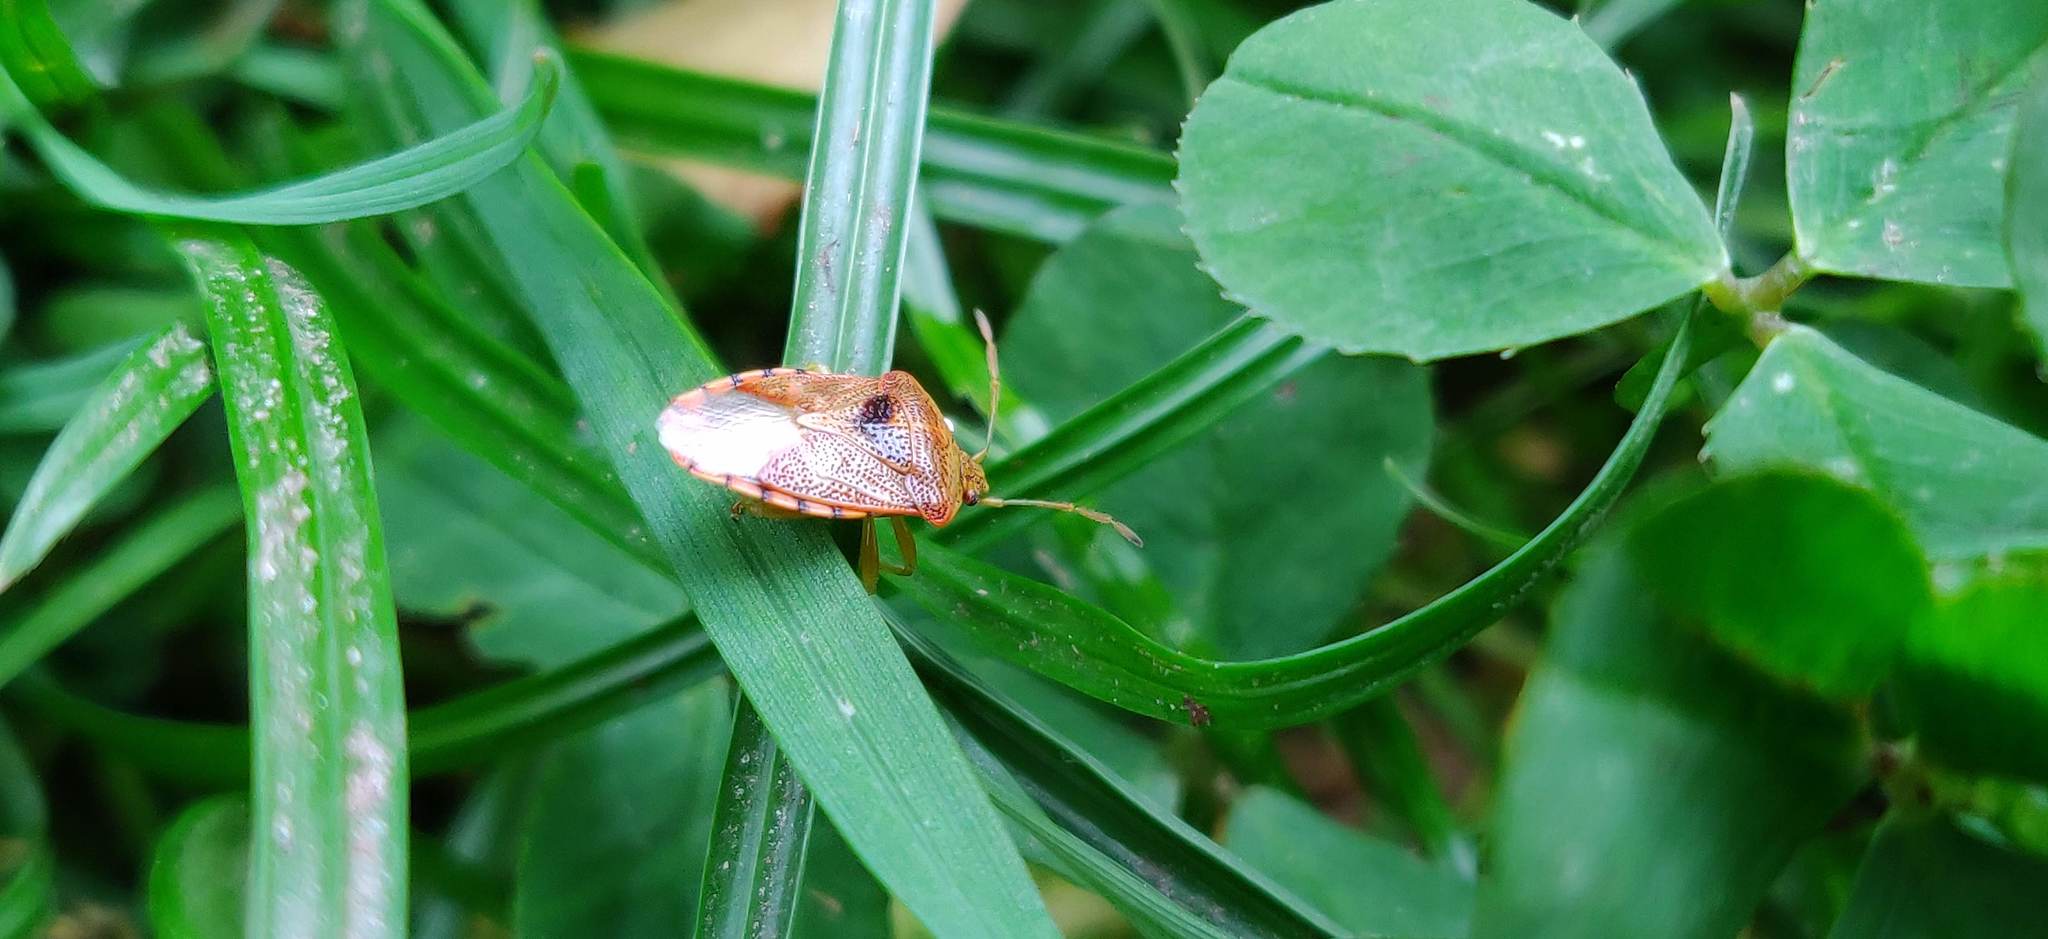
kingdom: Animalia
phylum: Arthropoda
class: Insecta
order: Hemiptera
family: Acanthosomatidae
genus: Elasmucha
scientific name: Elasmucha grisea
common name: Parent bug
